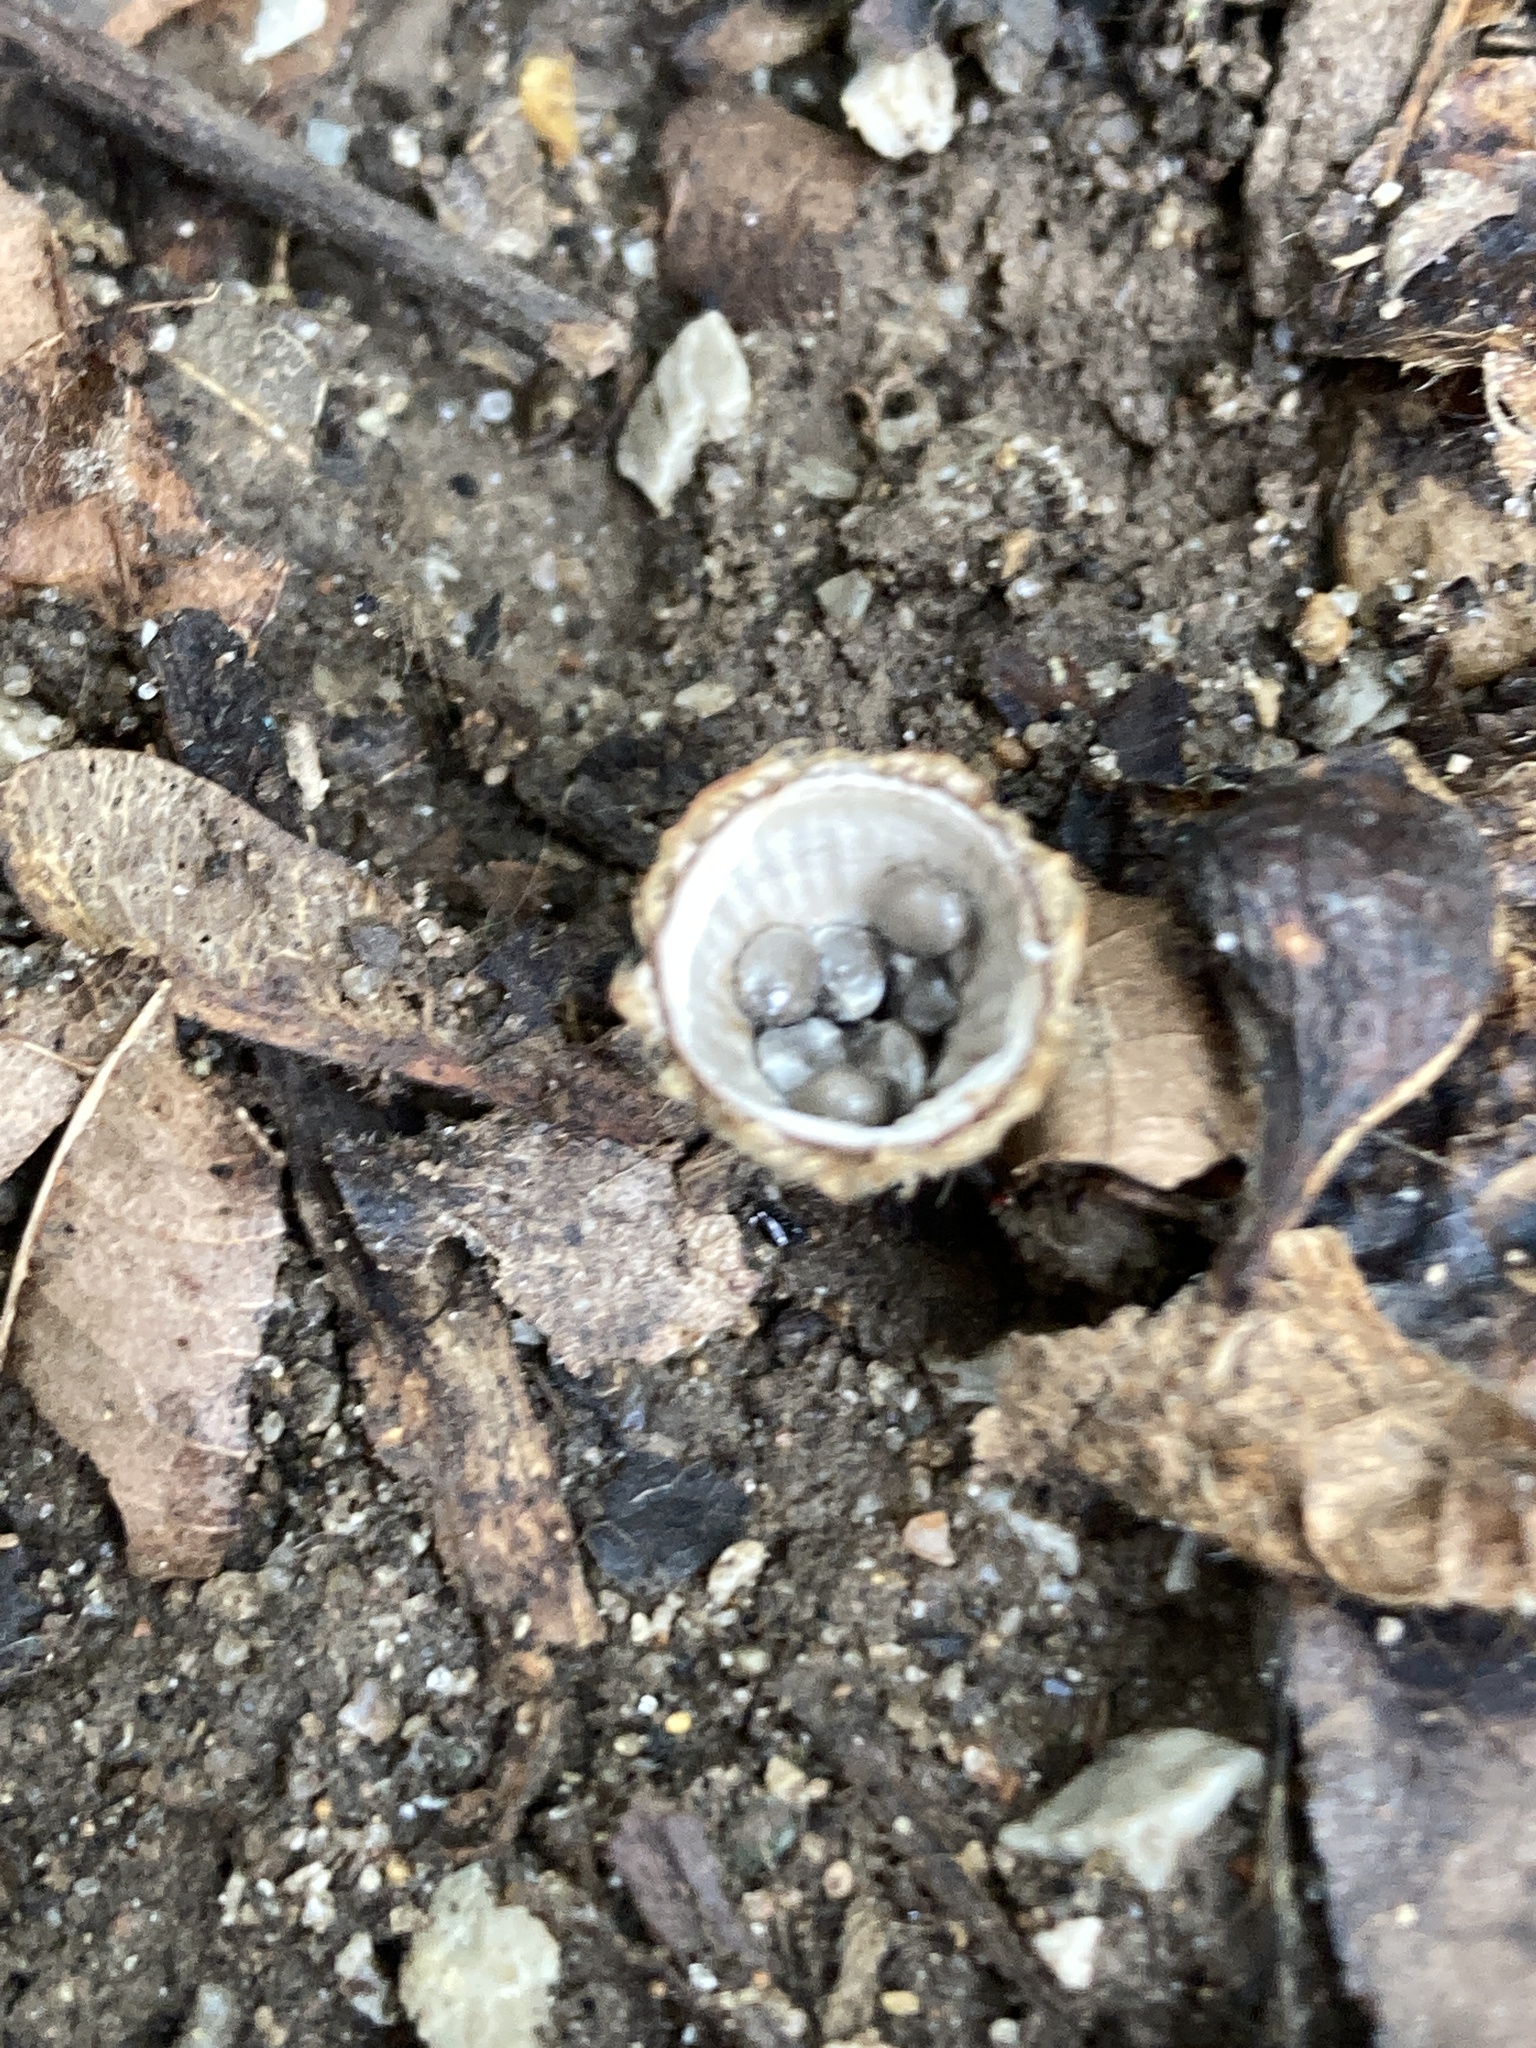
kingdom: Fungi
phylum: Basidiomycota
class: Agaricomycetes
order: Agaricales
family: Agaricaceae
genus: Cyathus
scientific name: Cyathus striatus
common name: Fluted bird's nest
